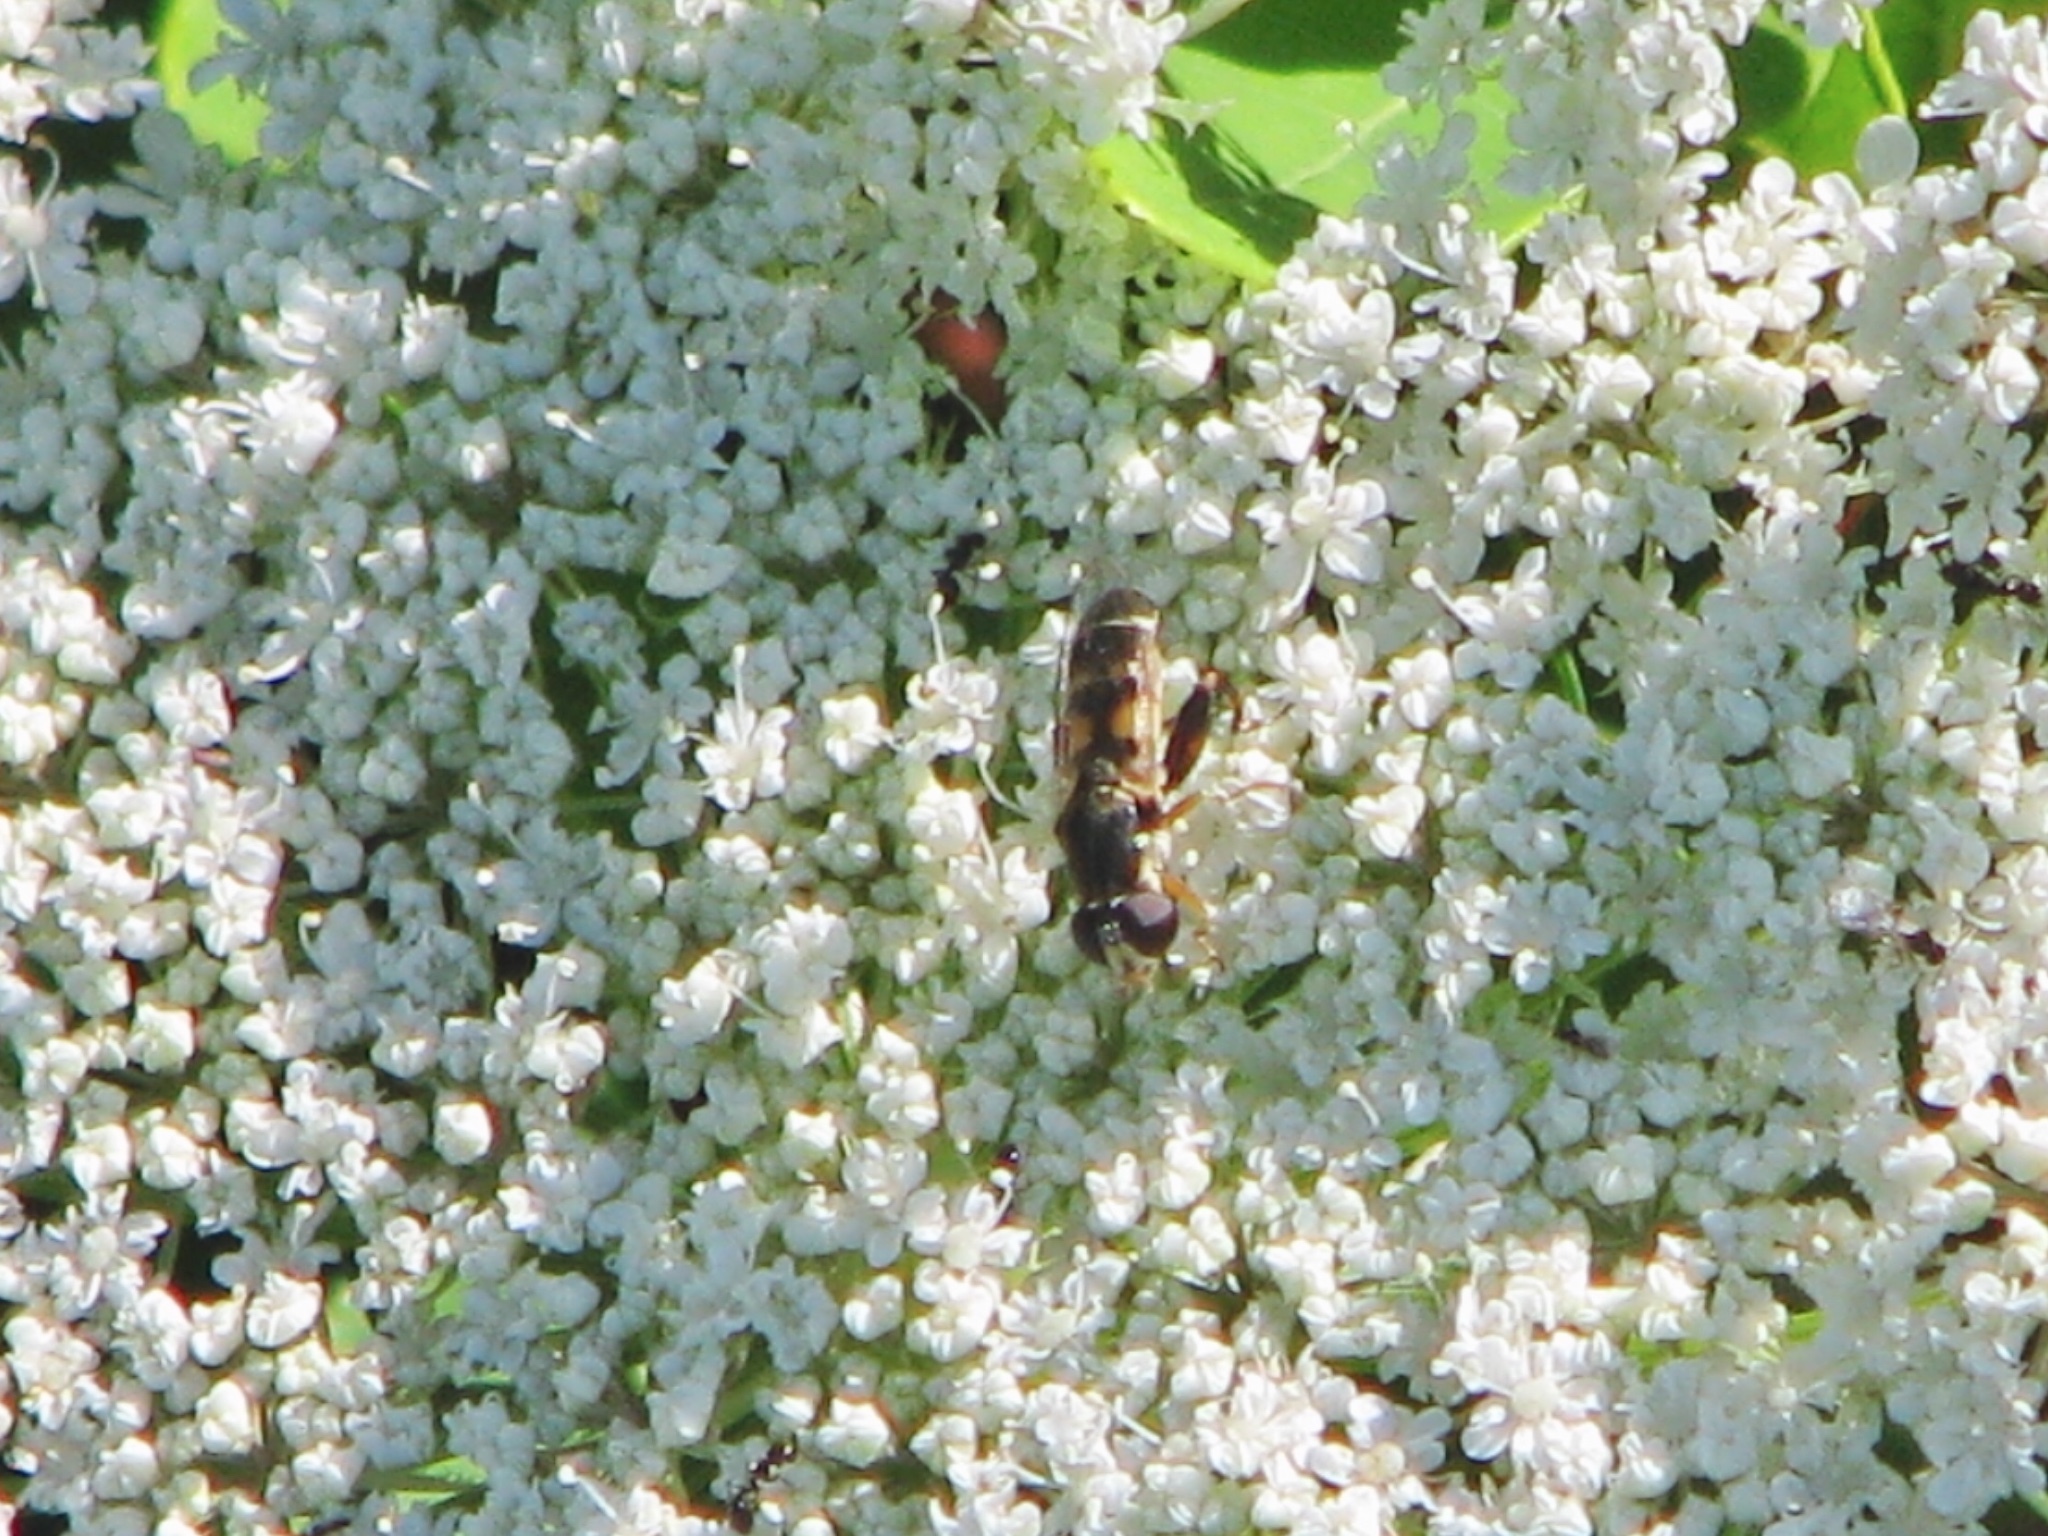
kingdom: Animalia
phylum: Arthropoda
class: Insecta
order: Diptera
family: Syrphidae
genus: Syritta
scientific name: Syritta pipiens
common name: Hover fly
